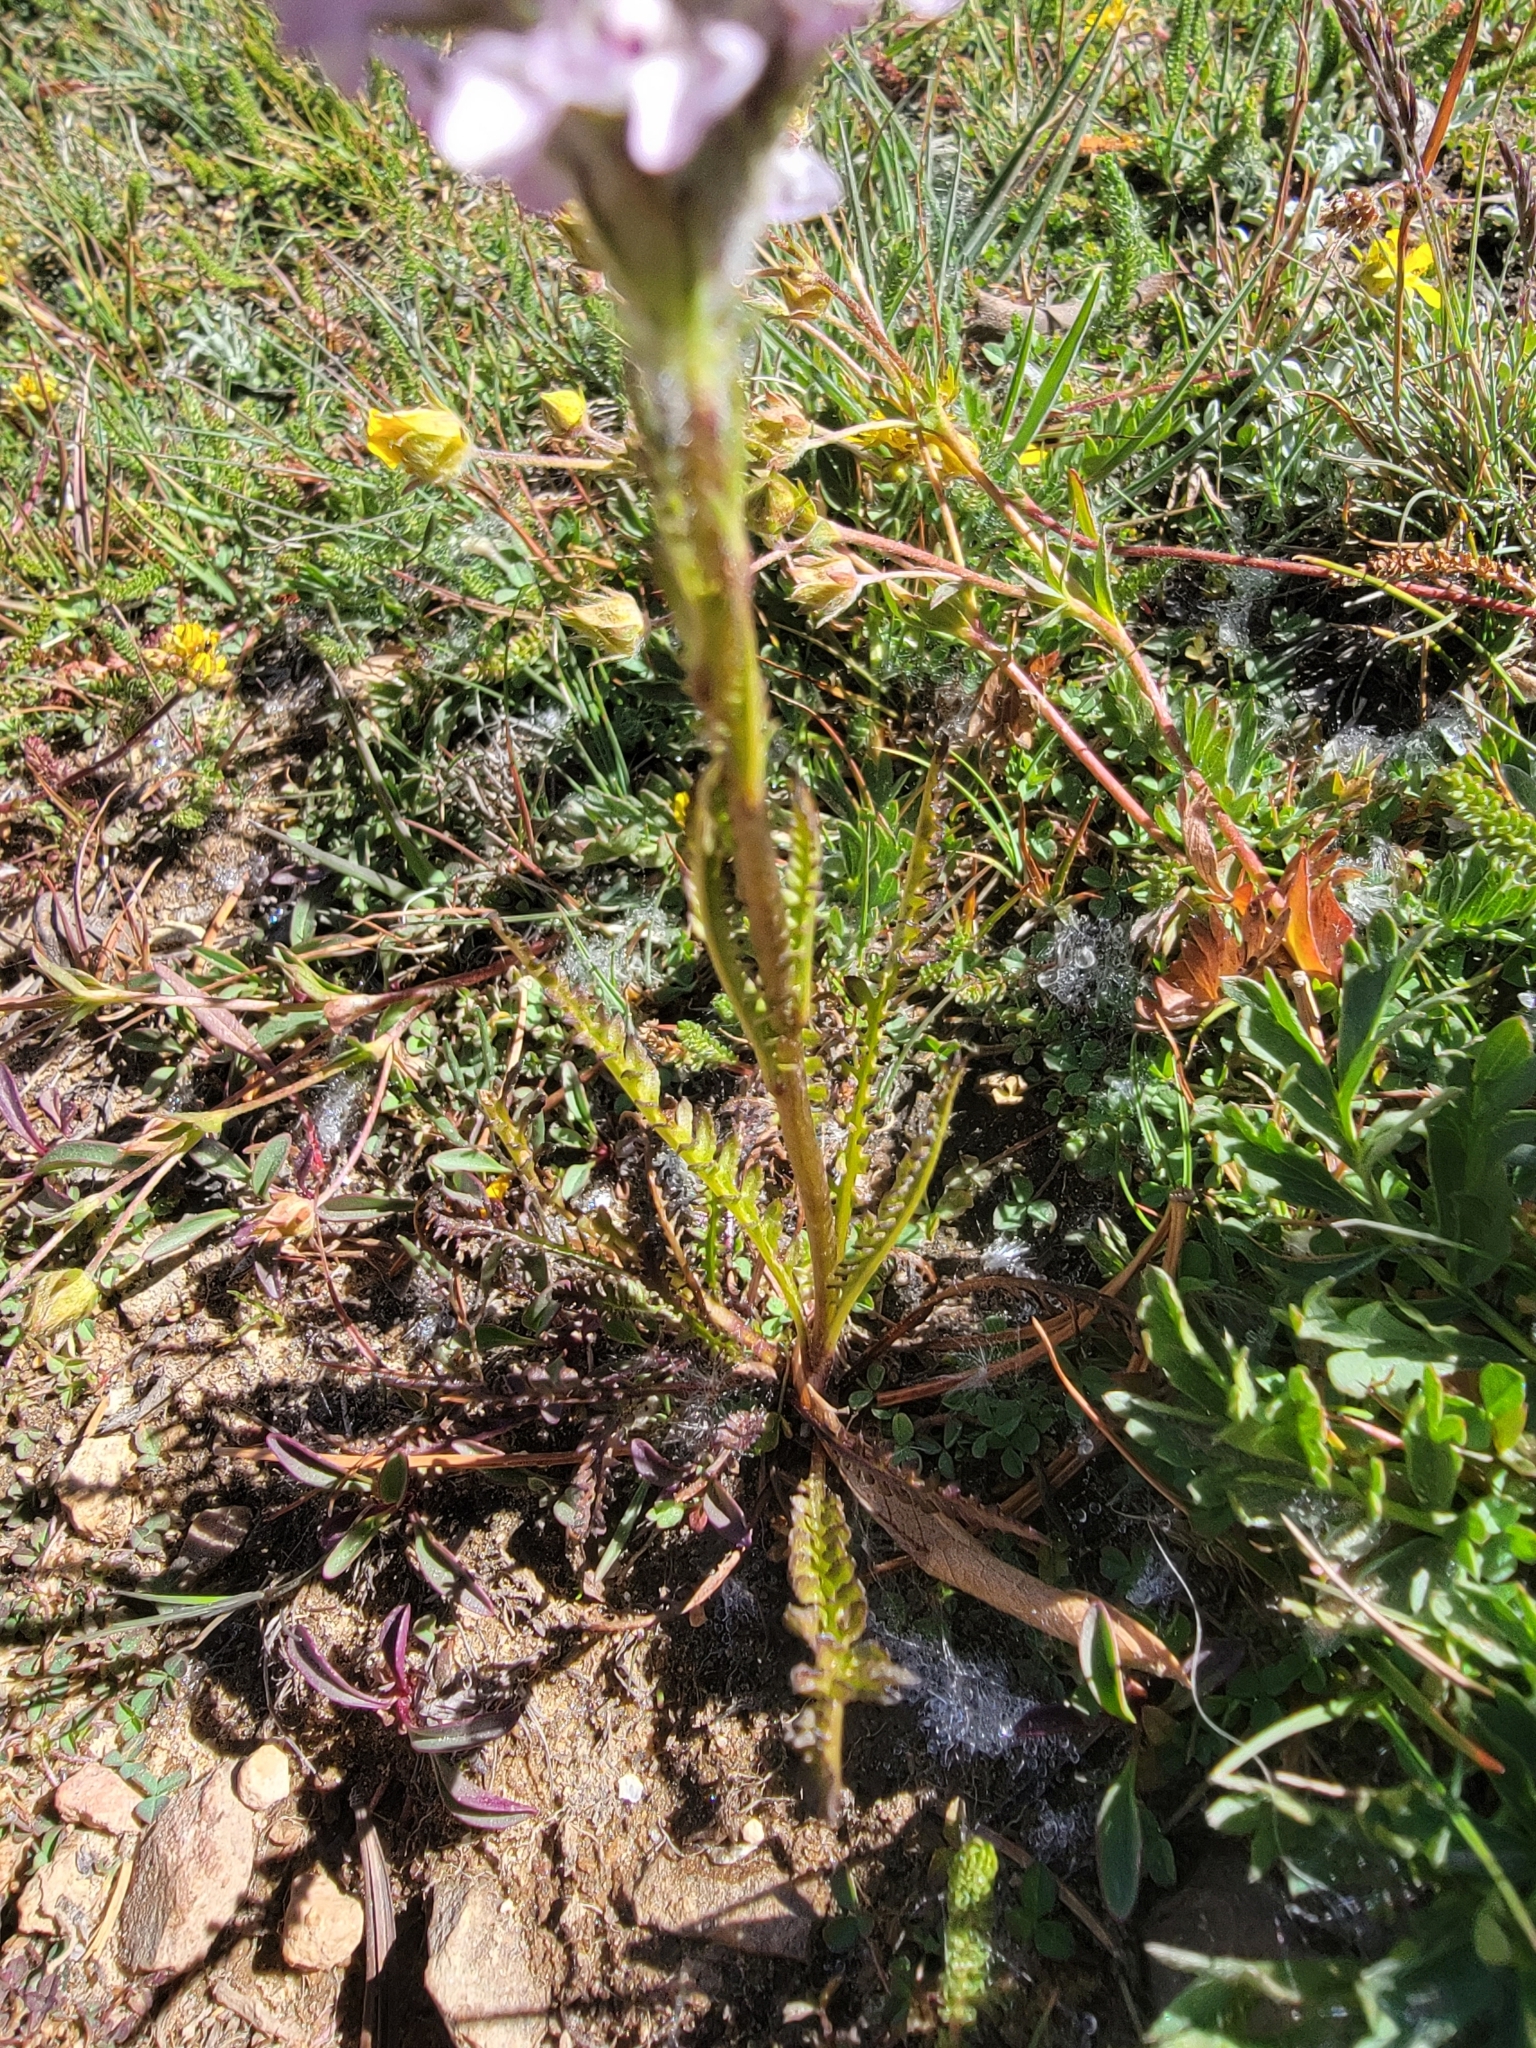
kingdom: Plantae
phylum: Tracheophyta
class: Magnoliopsida
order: Lamiales
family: Orobanchaceae
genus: Pedicularis
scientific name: Pedicularis attollens
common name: Slender pedicularis
